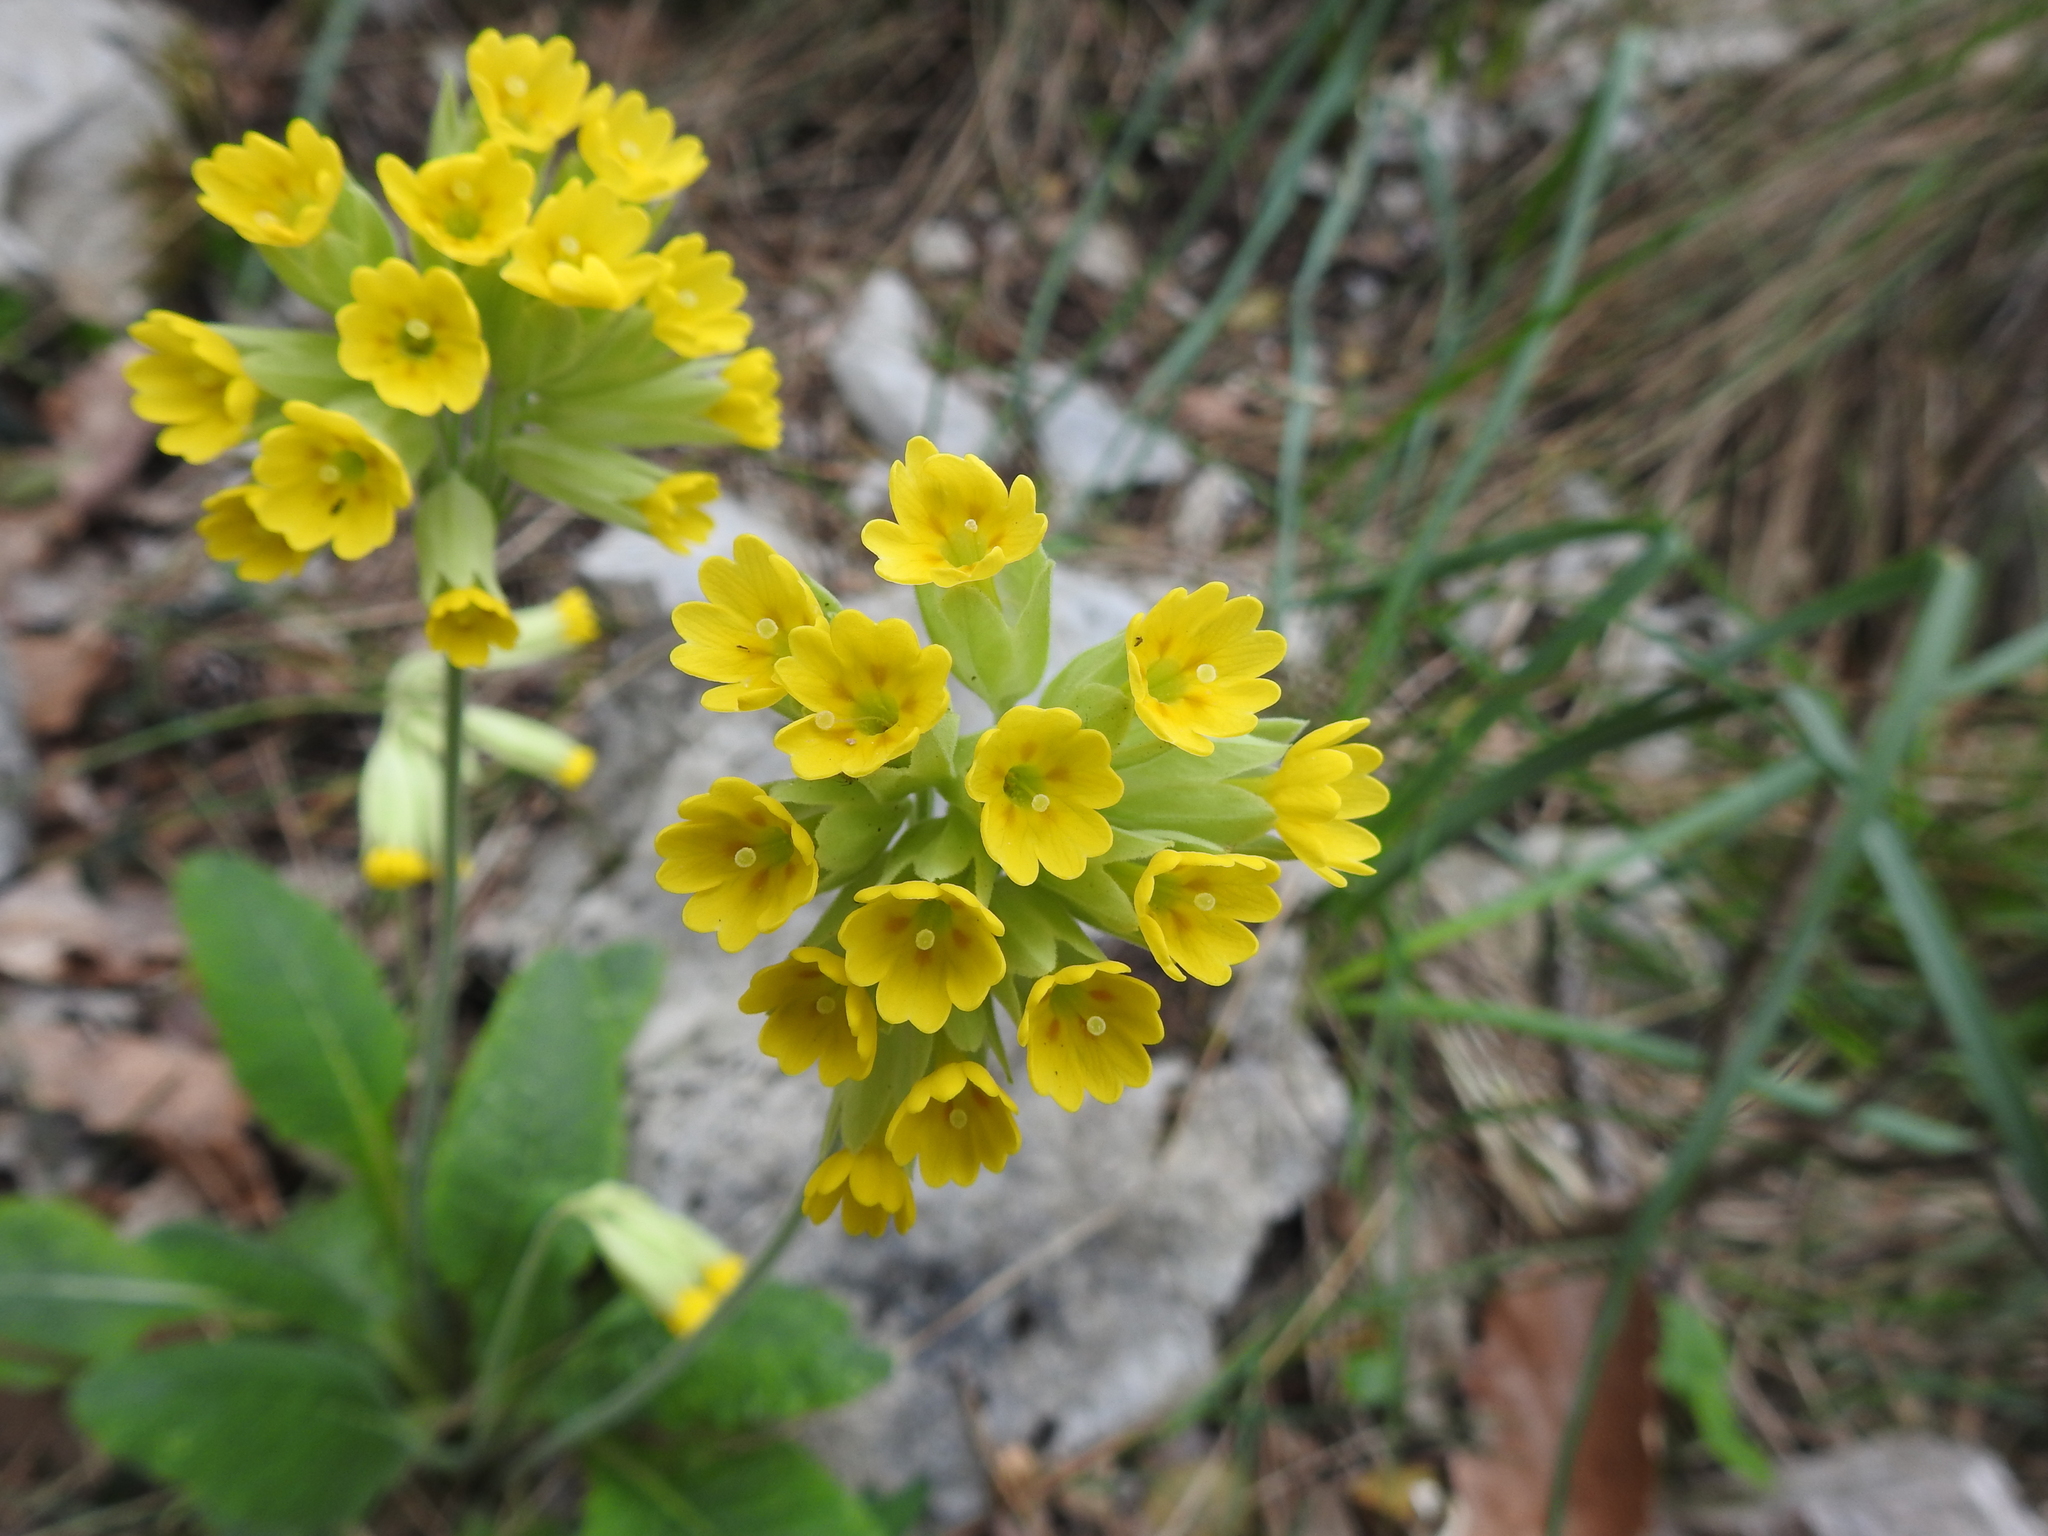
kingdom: Plantae
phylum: Tracheophyta
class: Magnoliopsida
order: Ericales
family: Primulaceae
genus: Primula
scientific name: Primula veris
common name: Cowslip
